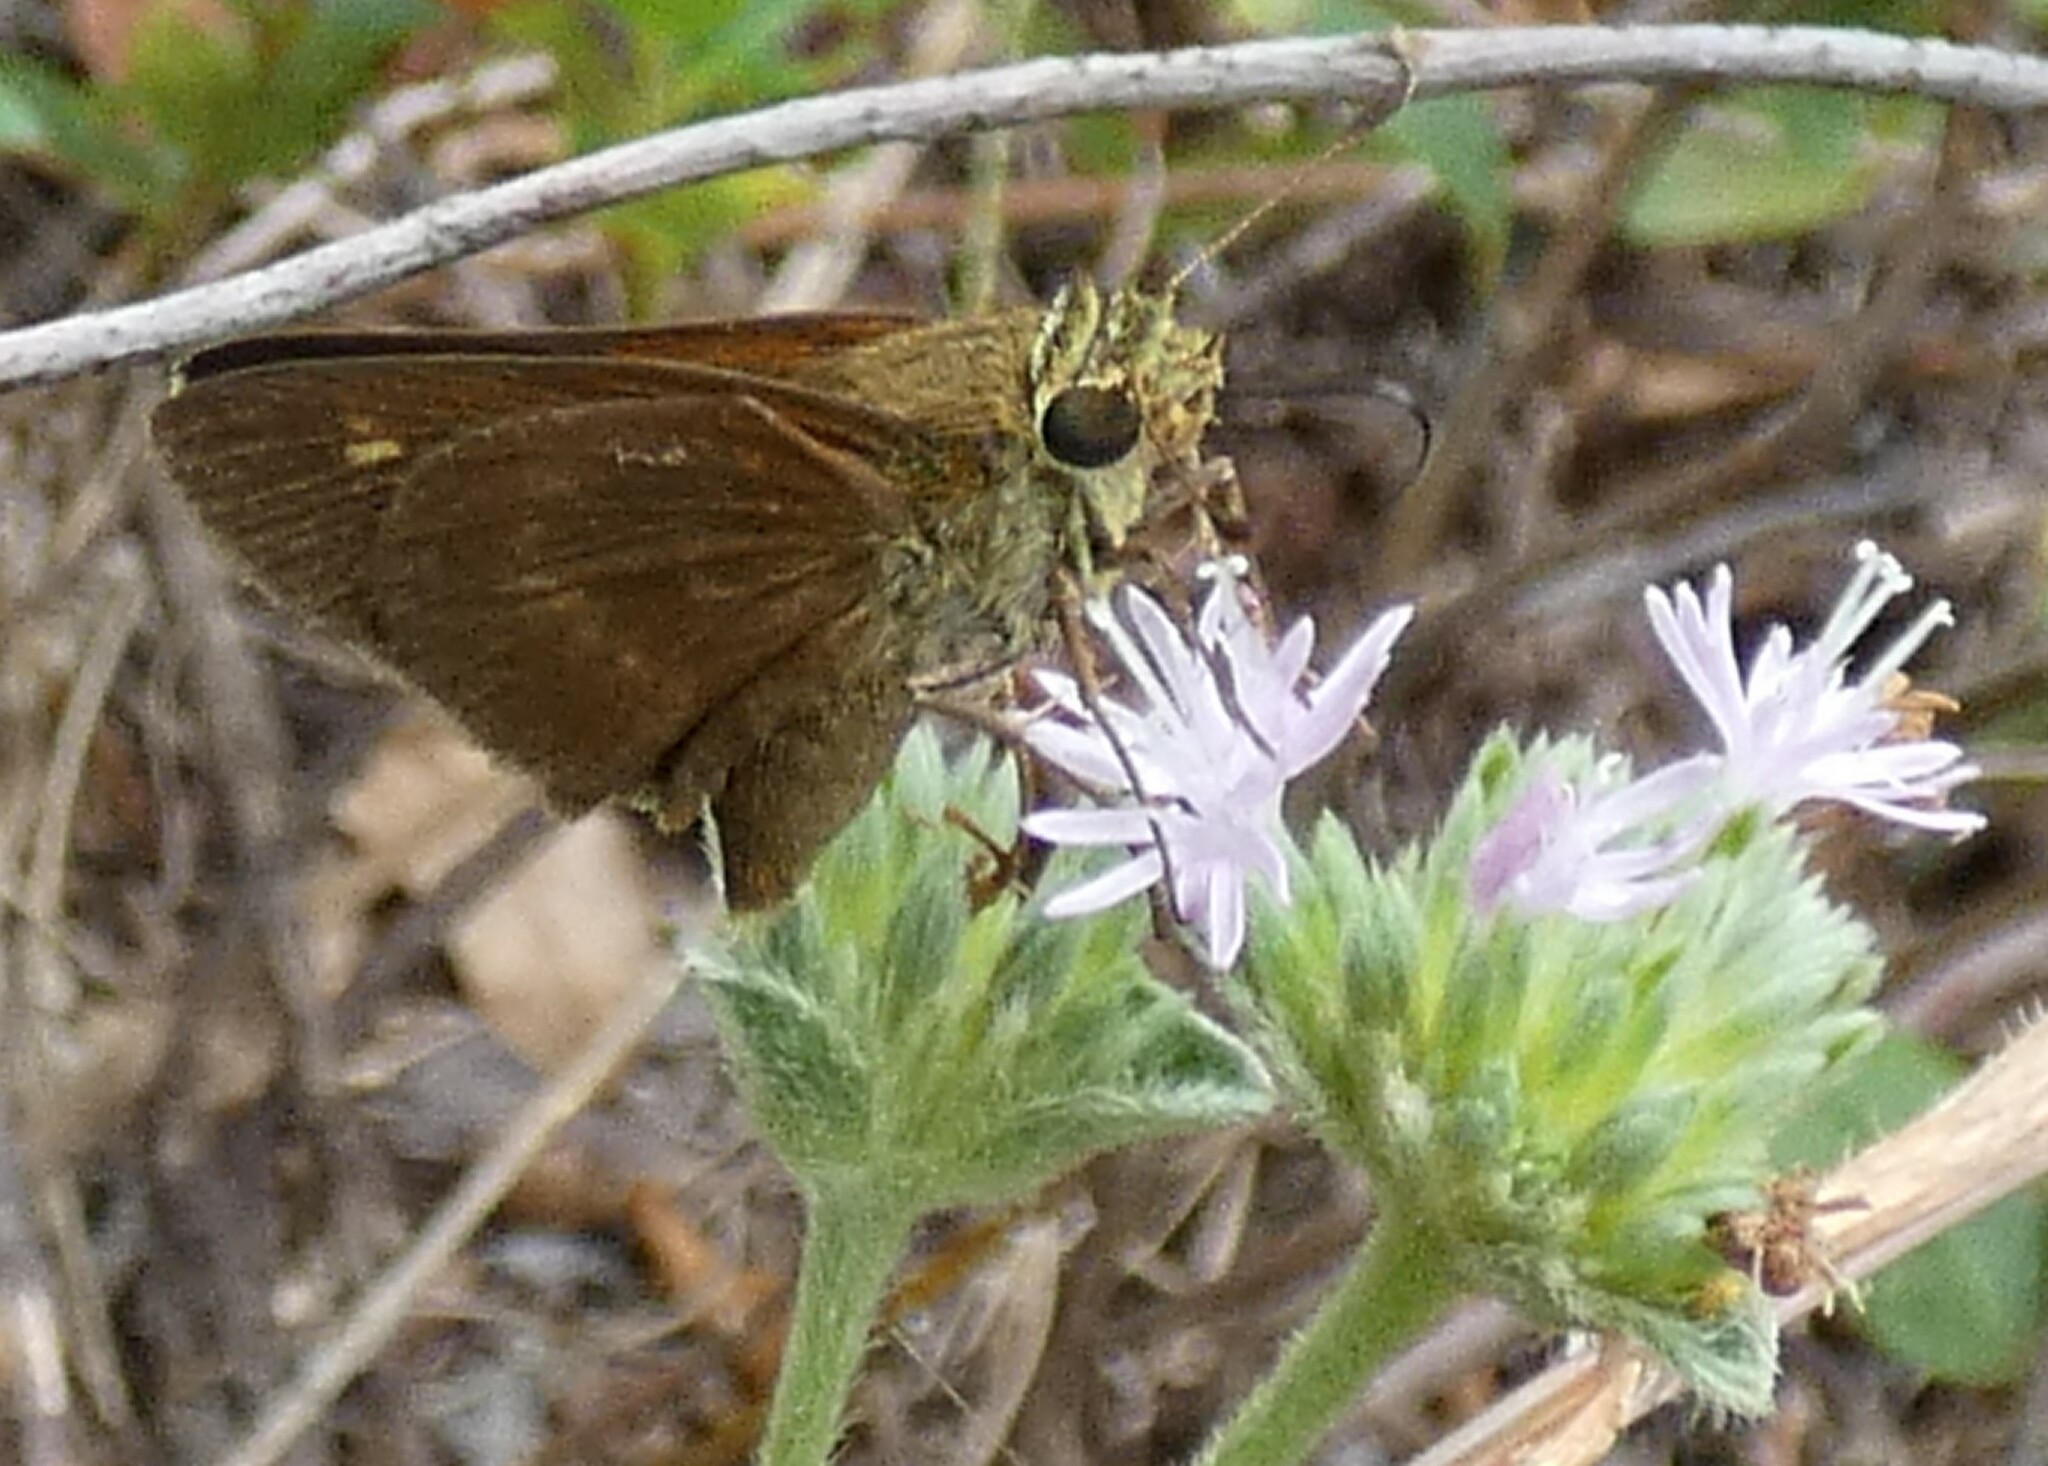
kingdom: Animalia
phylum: Arthropoda
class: Insecta
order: Lepidoptera
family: Hesperiidae
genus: Polites
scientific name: Polites egeremet
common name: Northern broken-dash
